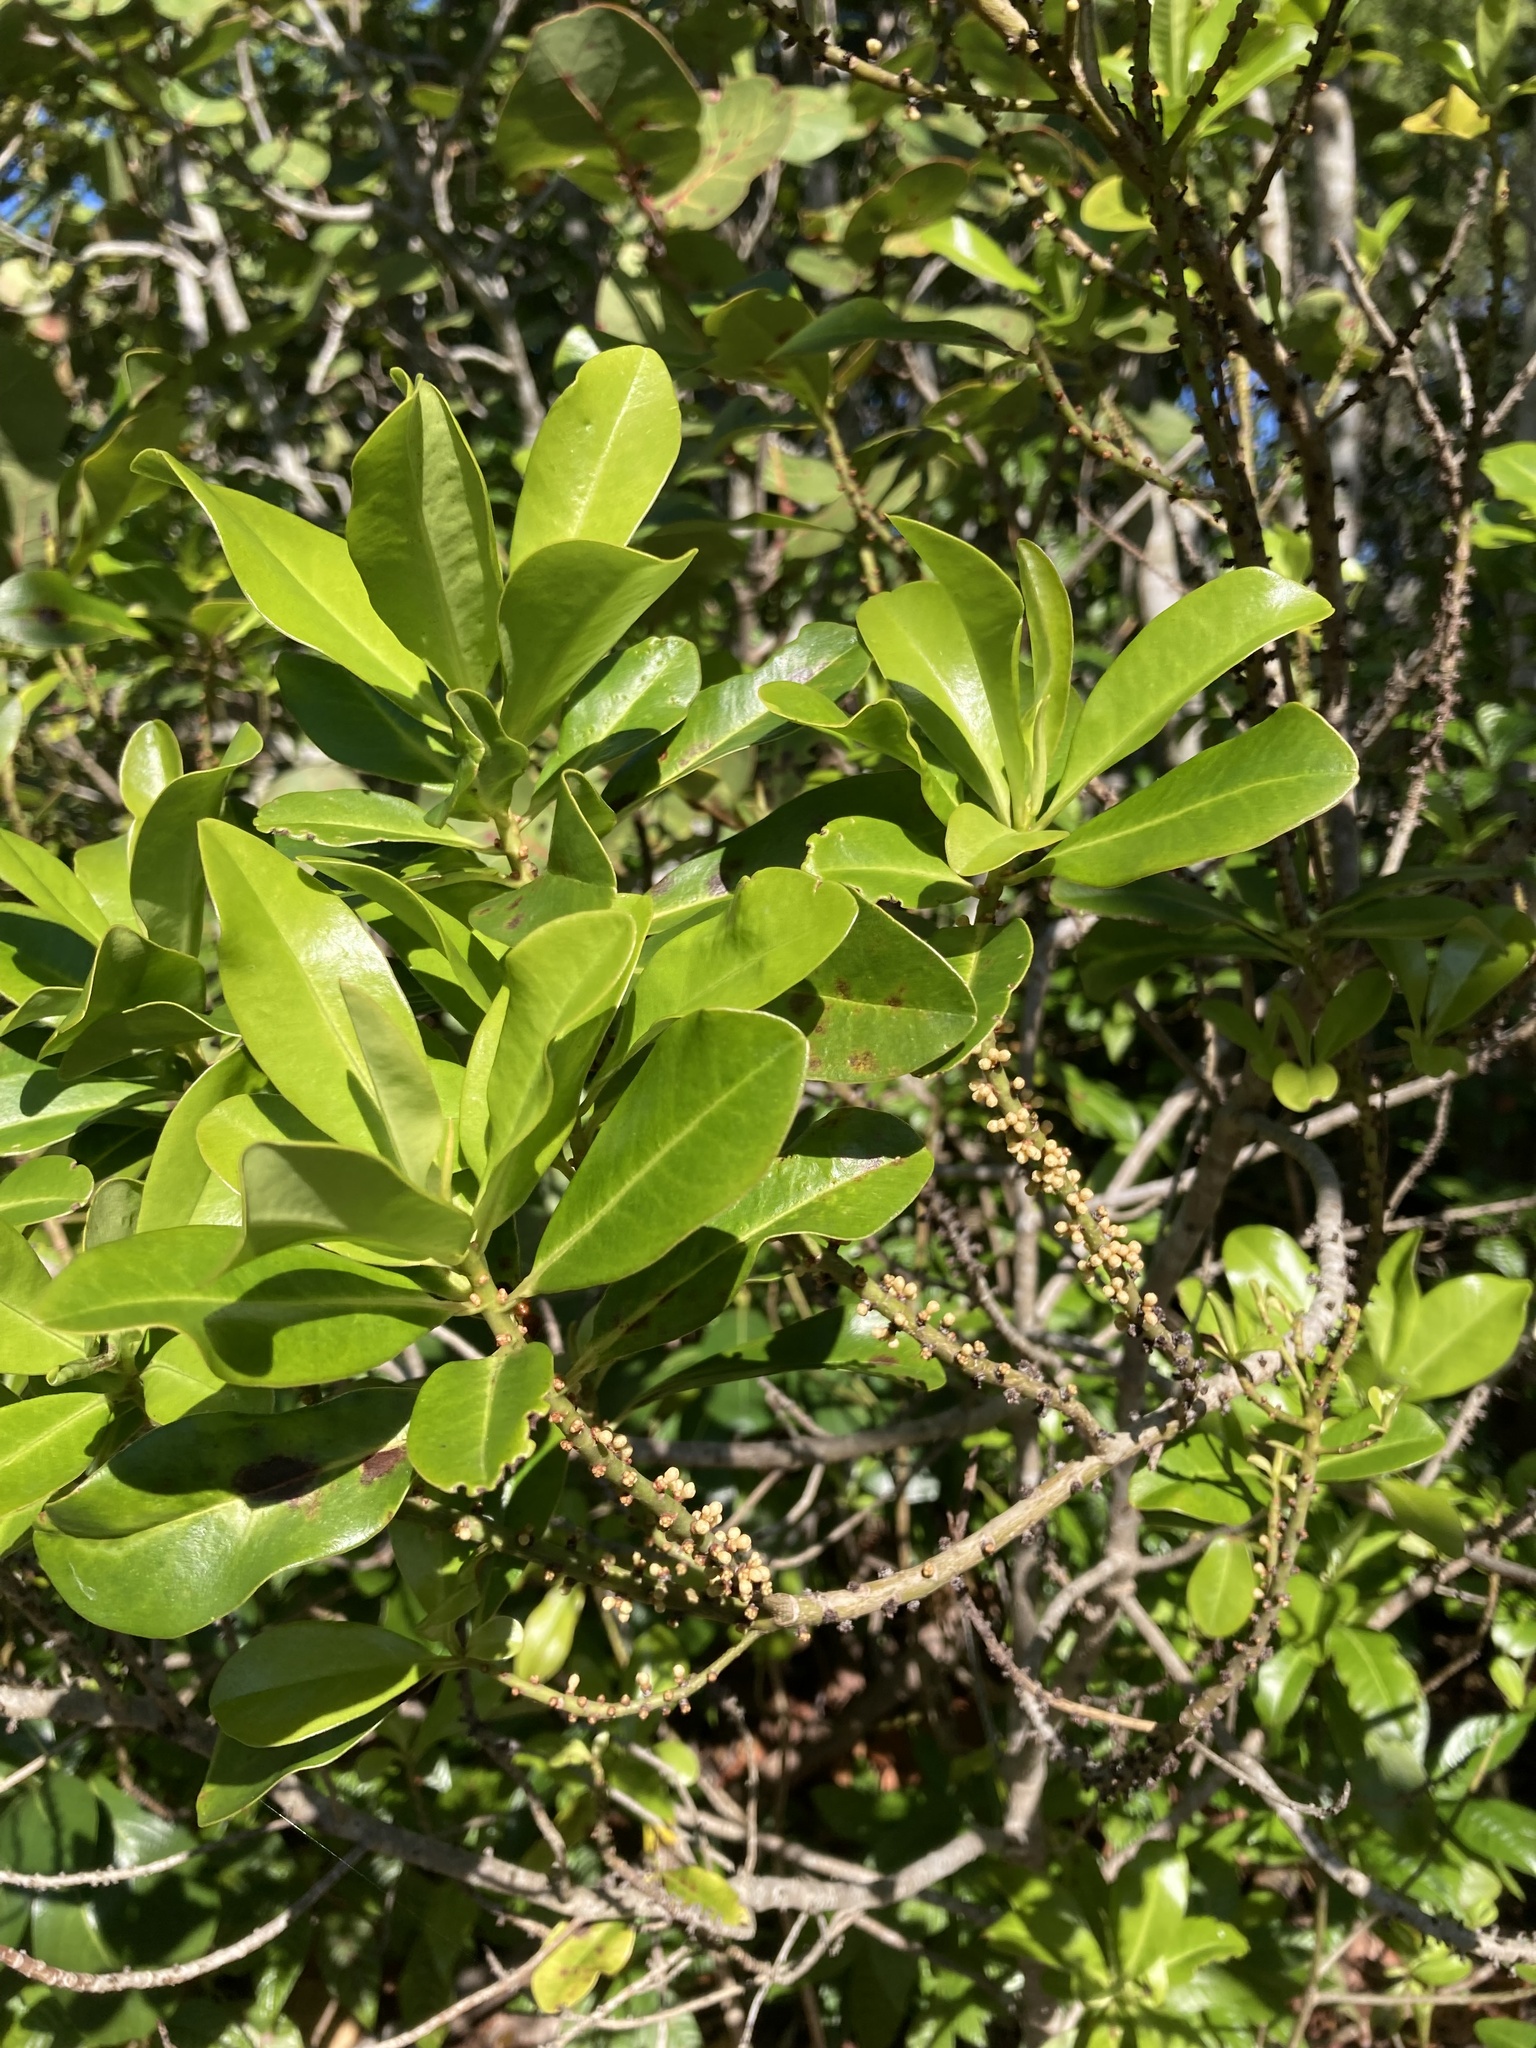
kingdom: Plantae
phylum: Tracheophyta
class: Magnoliopsida
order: Ericales
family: Primulaceae
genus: Myrsine
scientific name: Myrsine floridana
